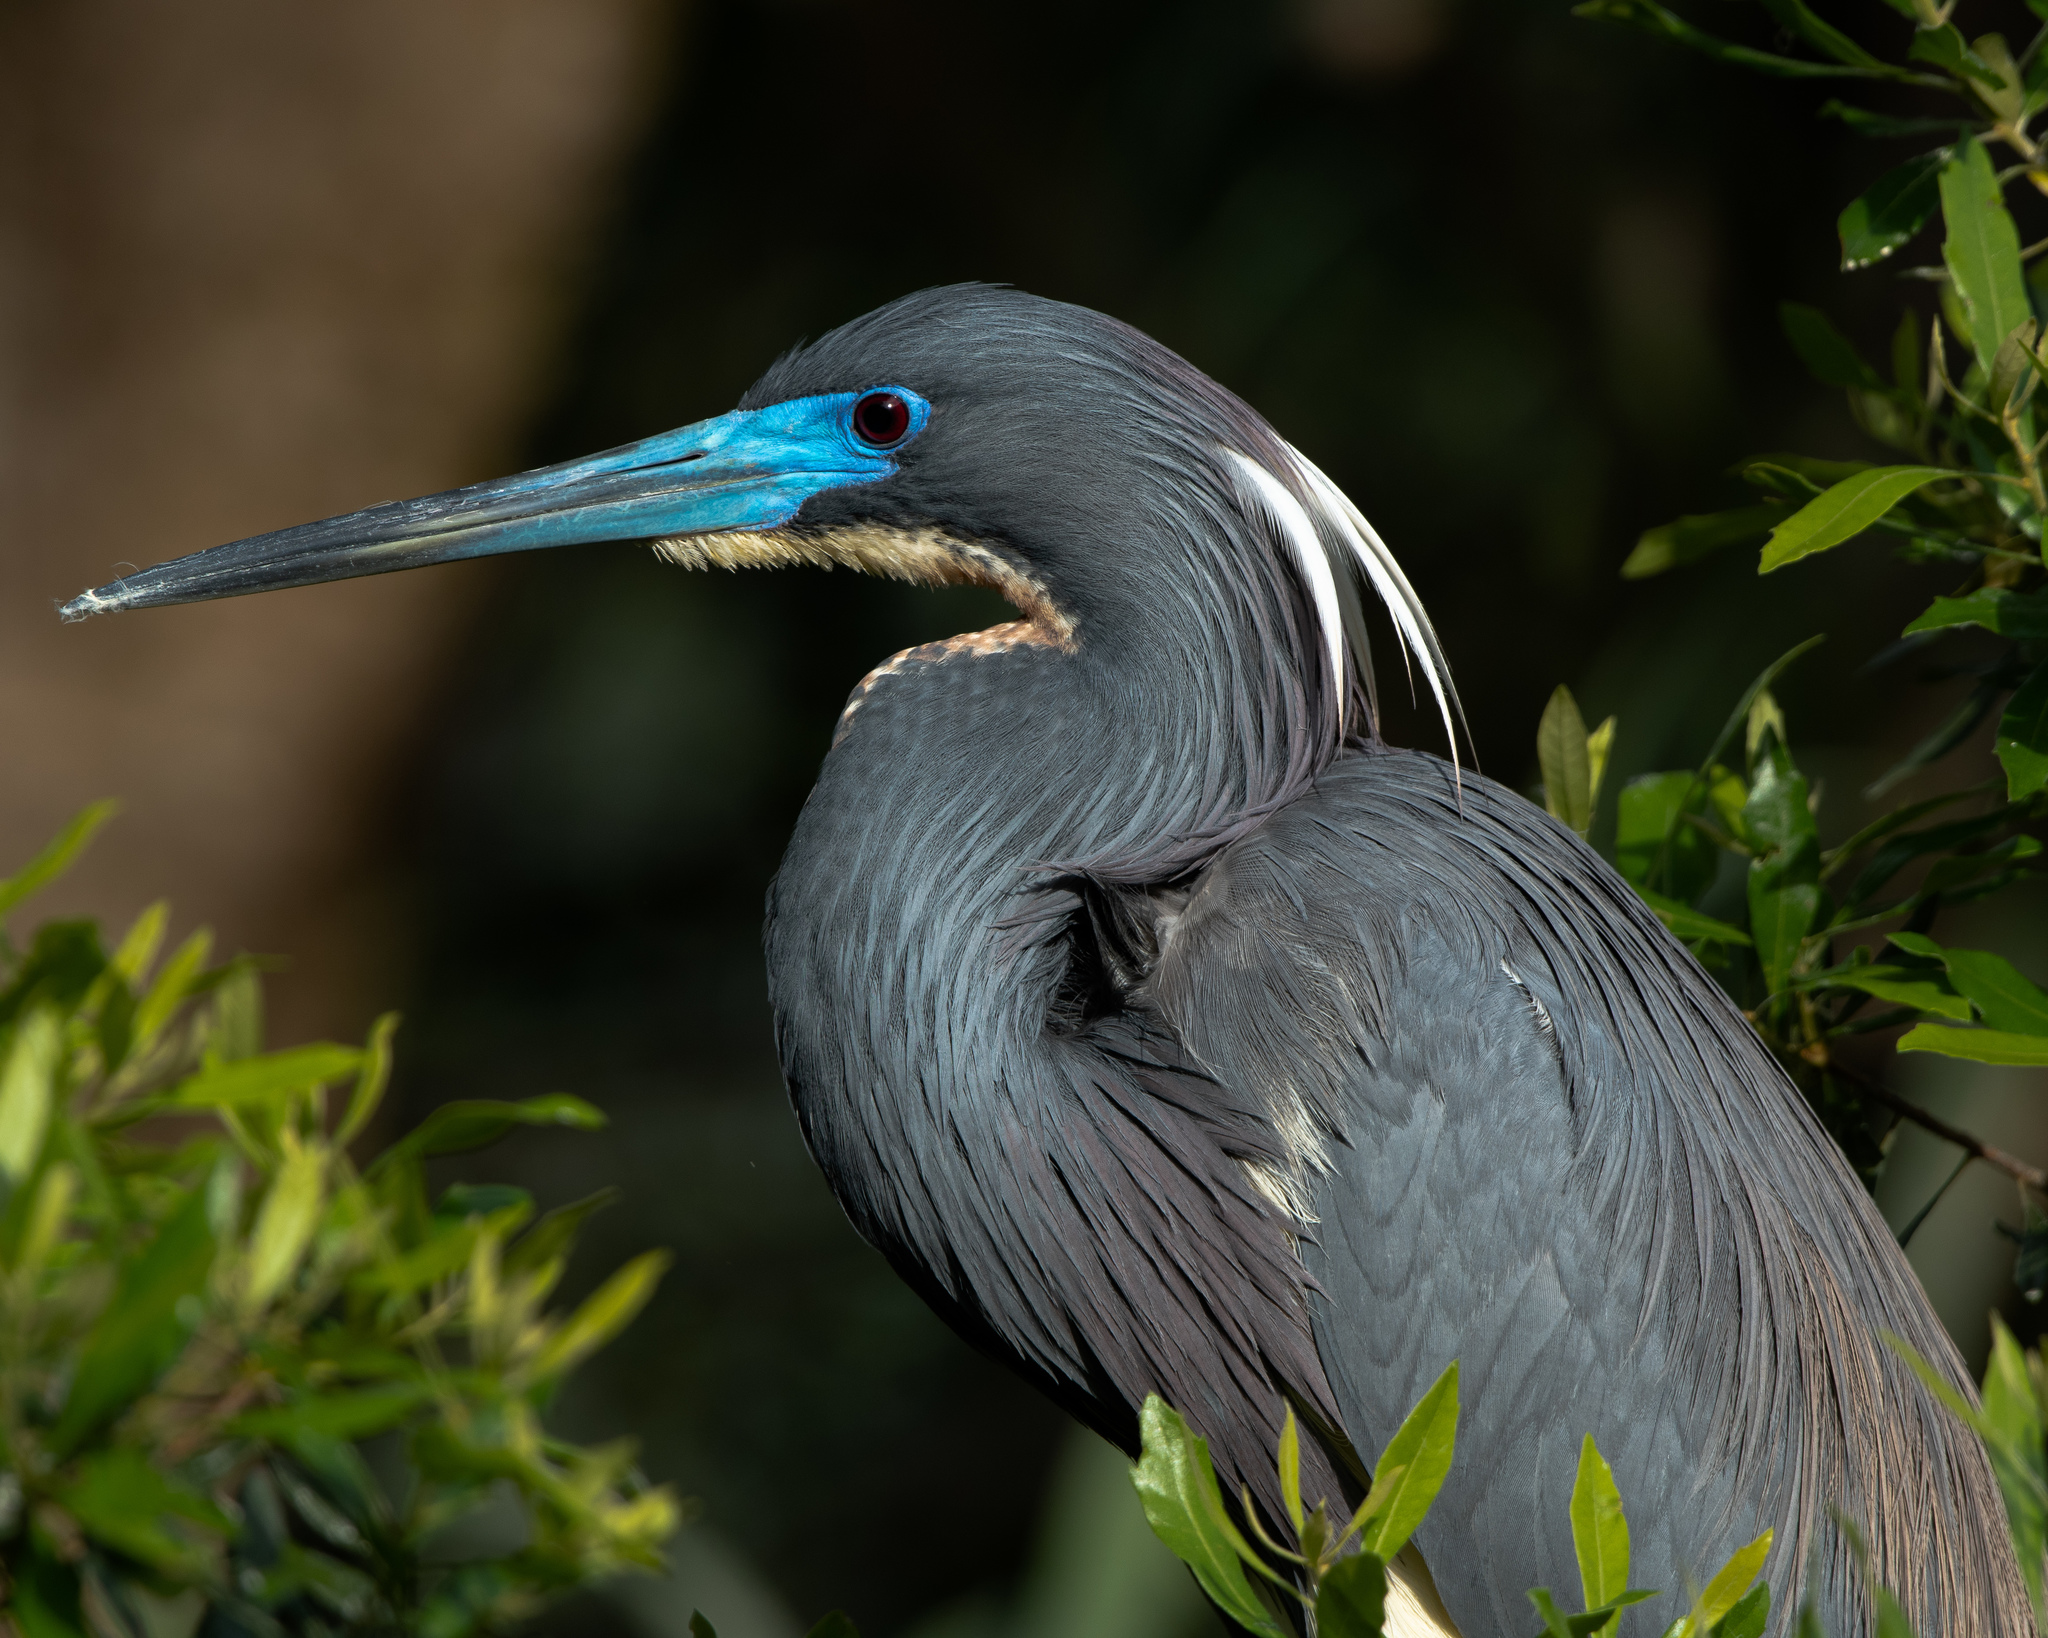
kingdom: Animalia
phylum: Chordata
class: Aves
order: Pelecaniformes
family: Ardeidae
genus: Egretta
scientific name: Egretta tricolor
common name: Tricolored heron
